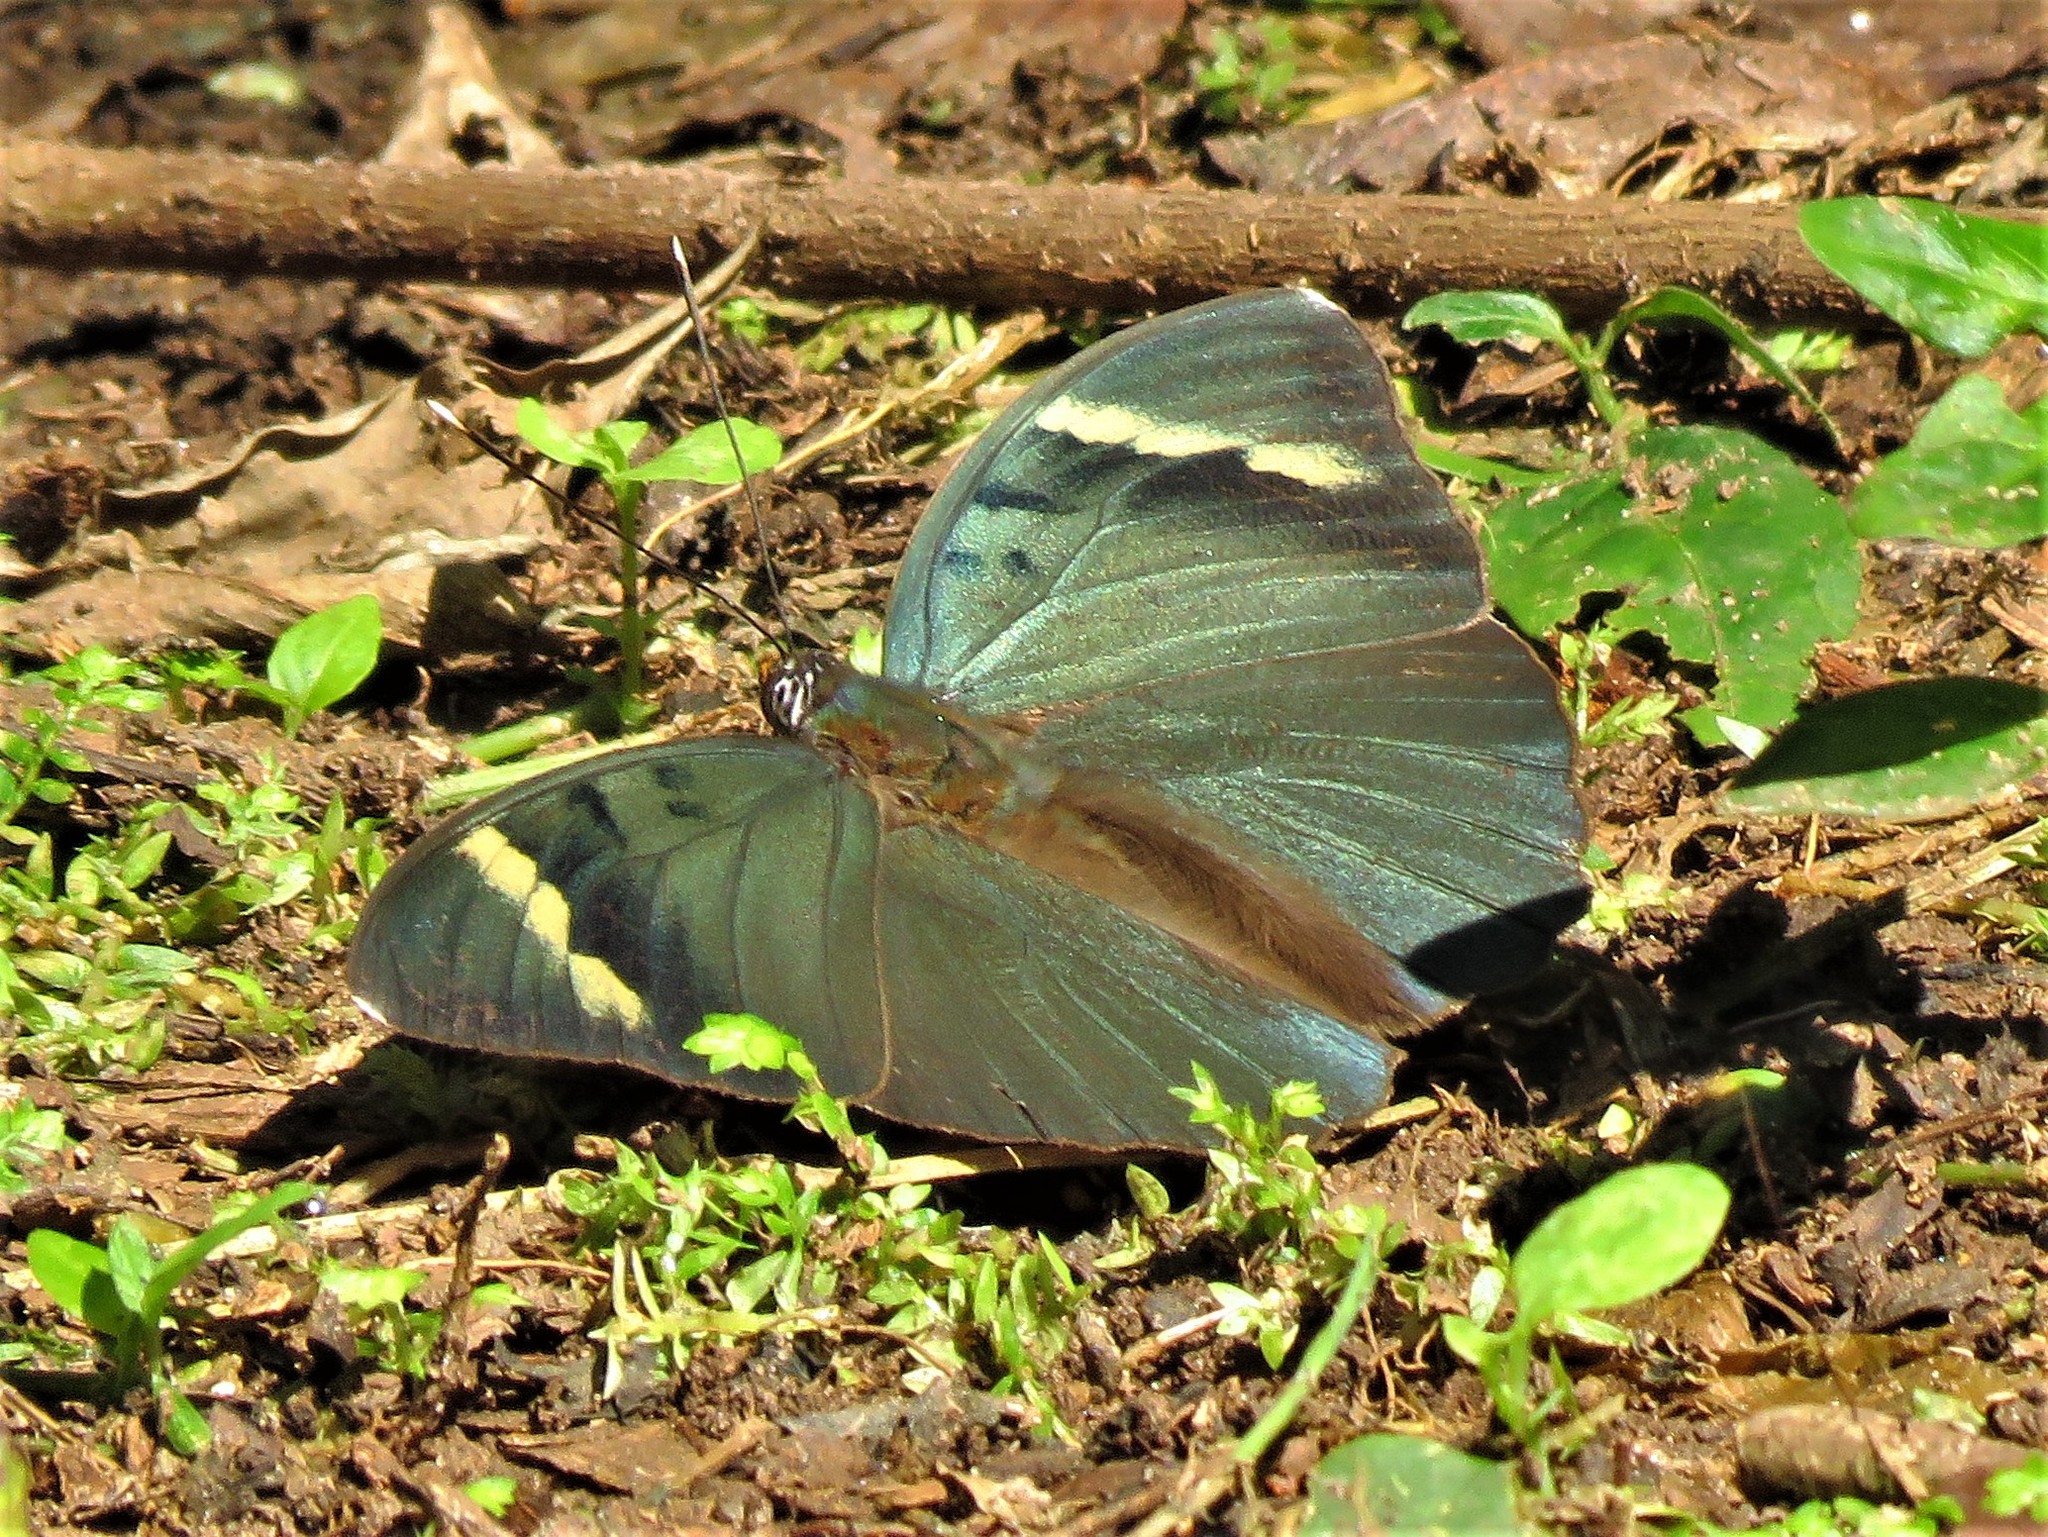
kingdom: Animalia
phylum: Arthropoda
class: Insecta
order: Lepidoptera
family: Nymphalidae
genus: Euphaedra
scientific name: Euphaedra medon
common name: Widespread forester
